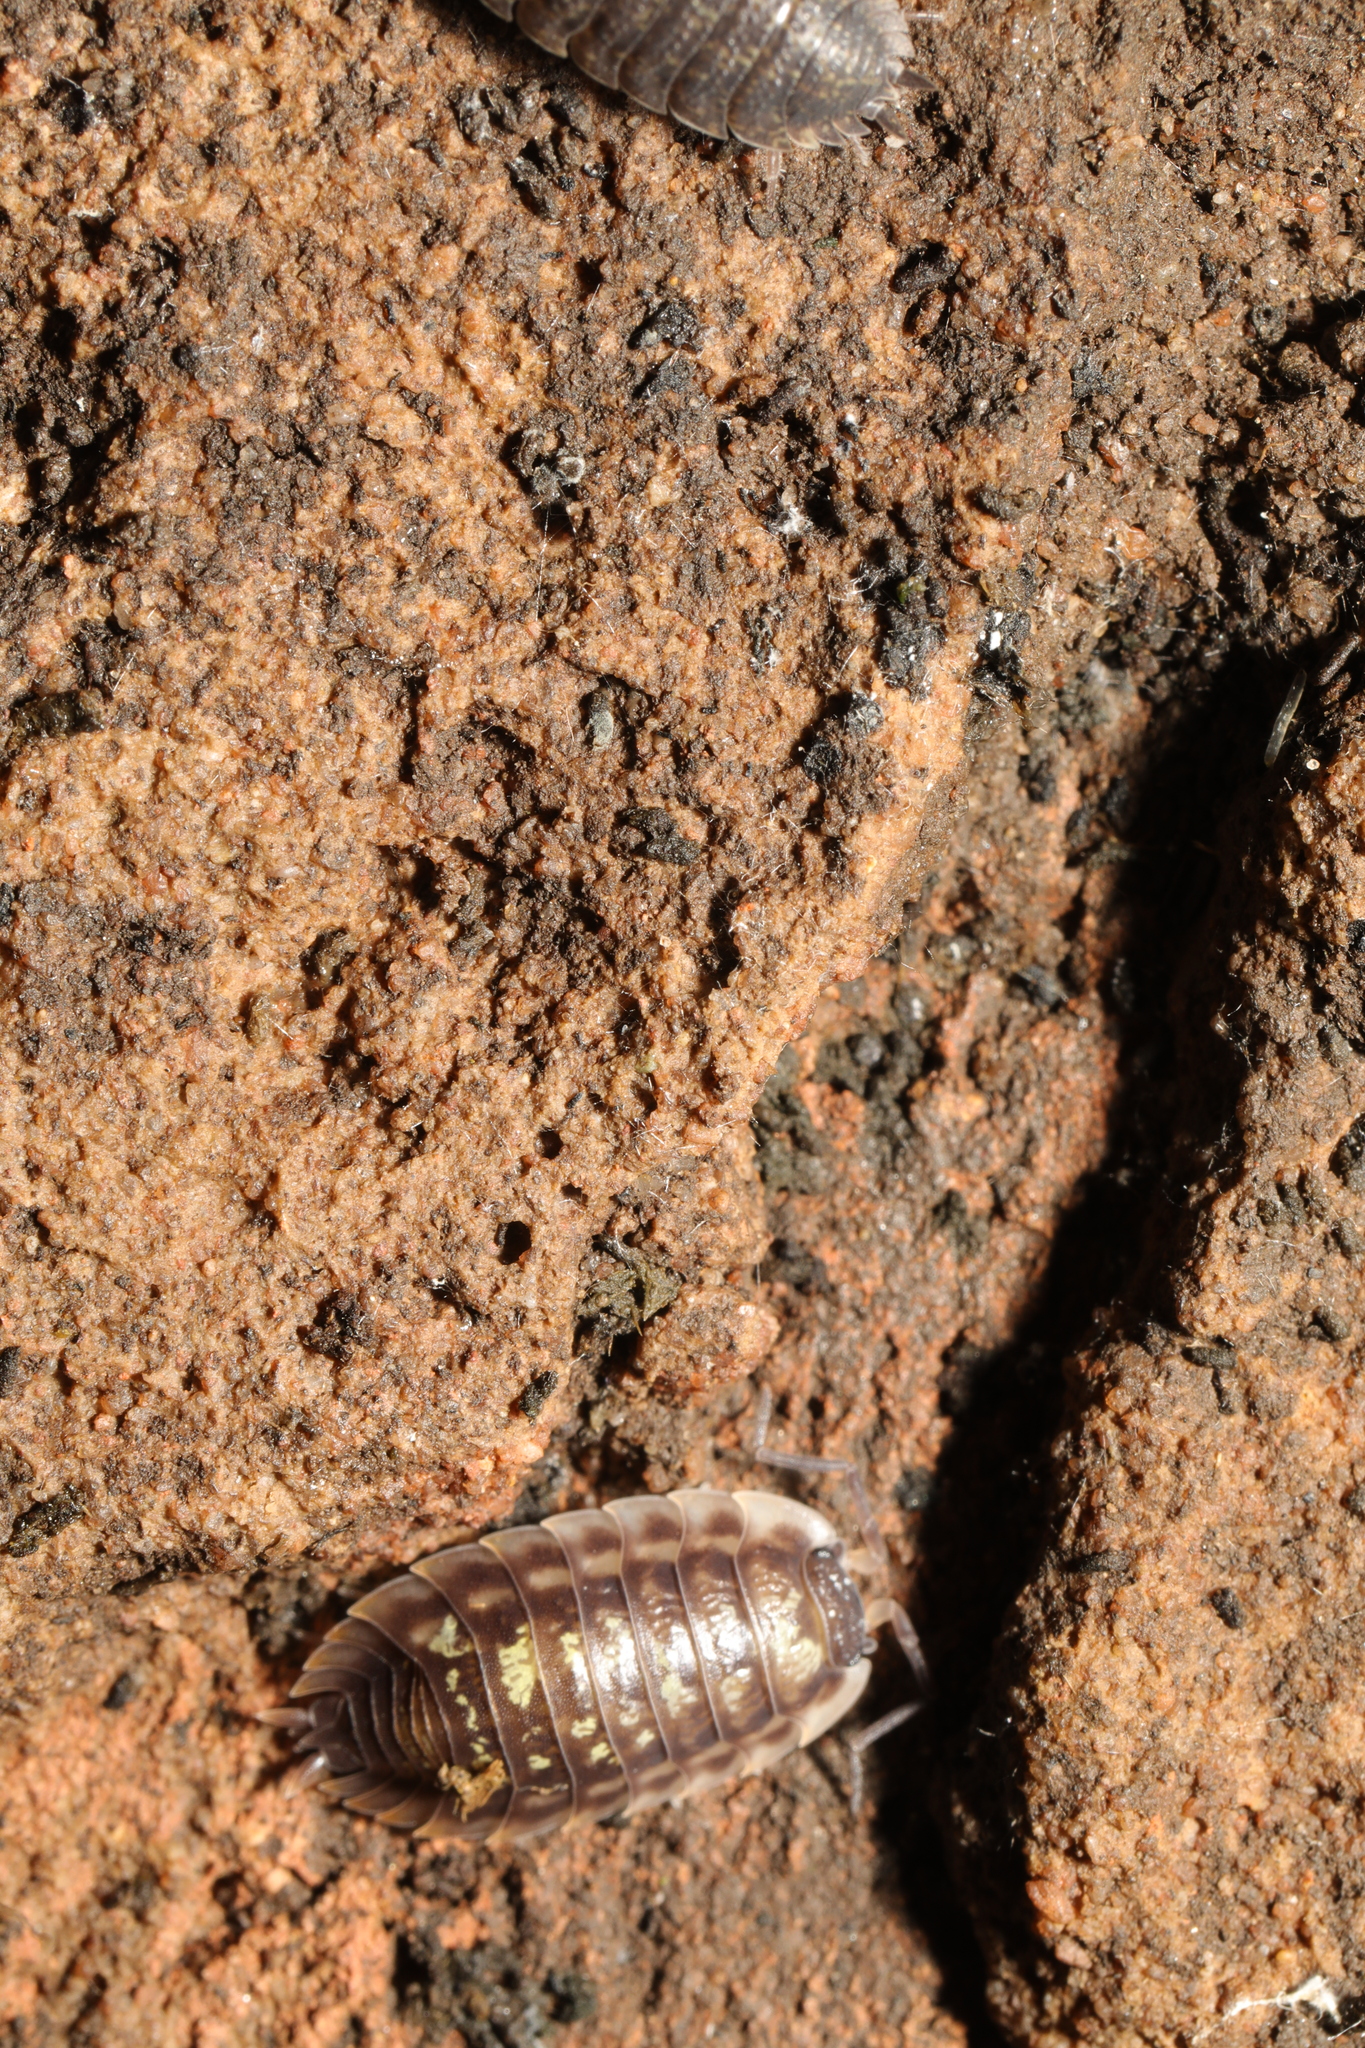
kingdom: Animalia
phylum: Arthropoda
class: Malacostraca
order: Isopoda
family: Oniscidae
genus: Oniscus
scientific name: Oniscus asellus
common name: Common shiny woodlouse
